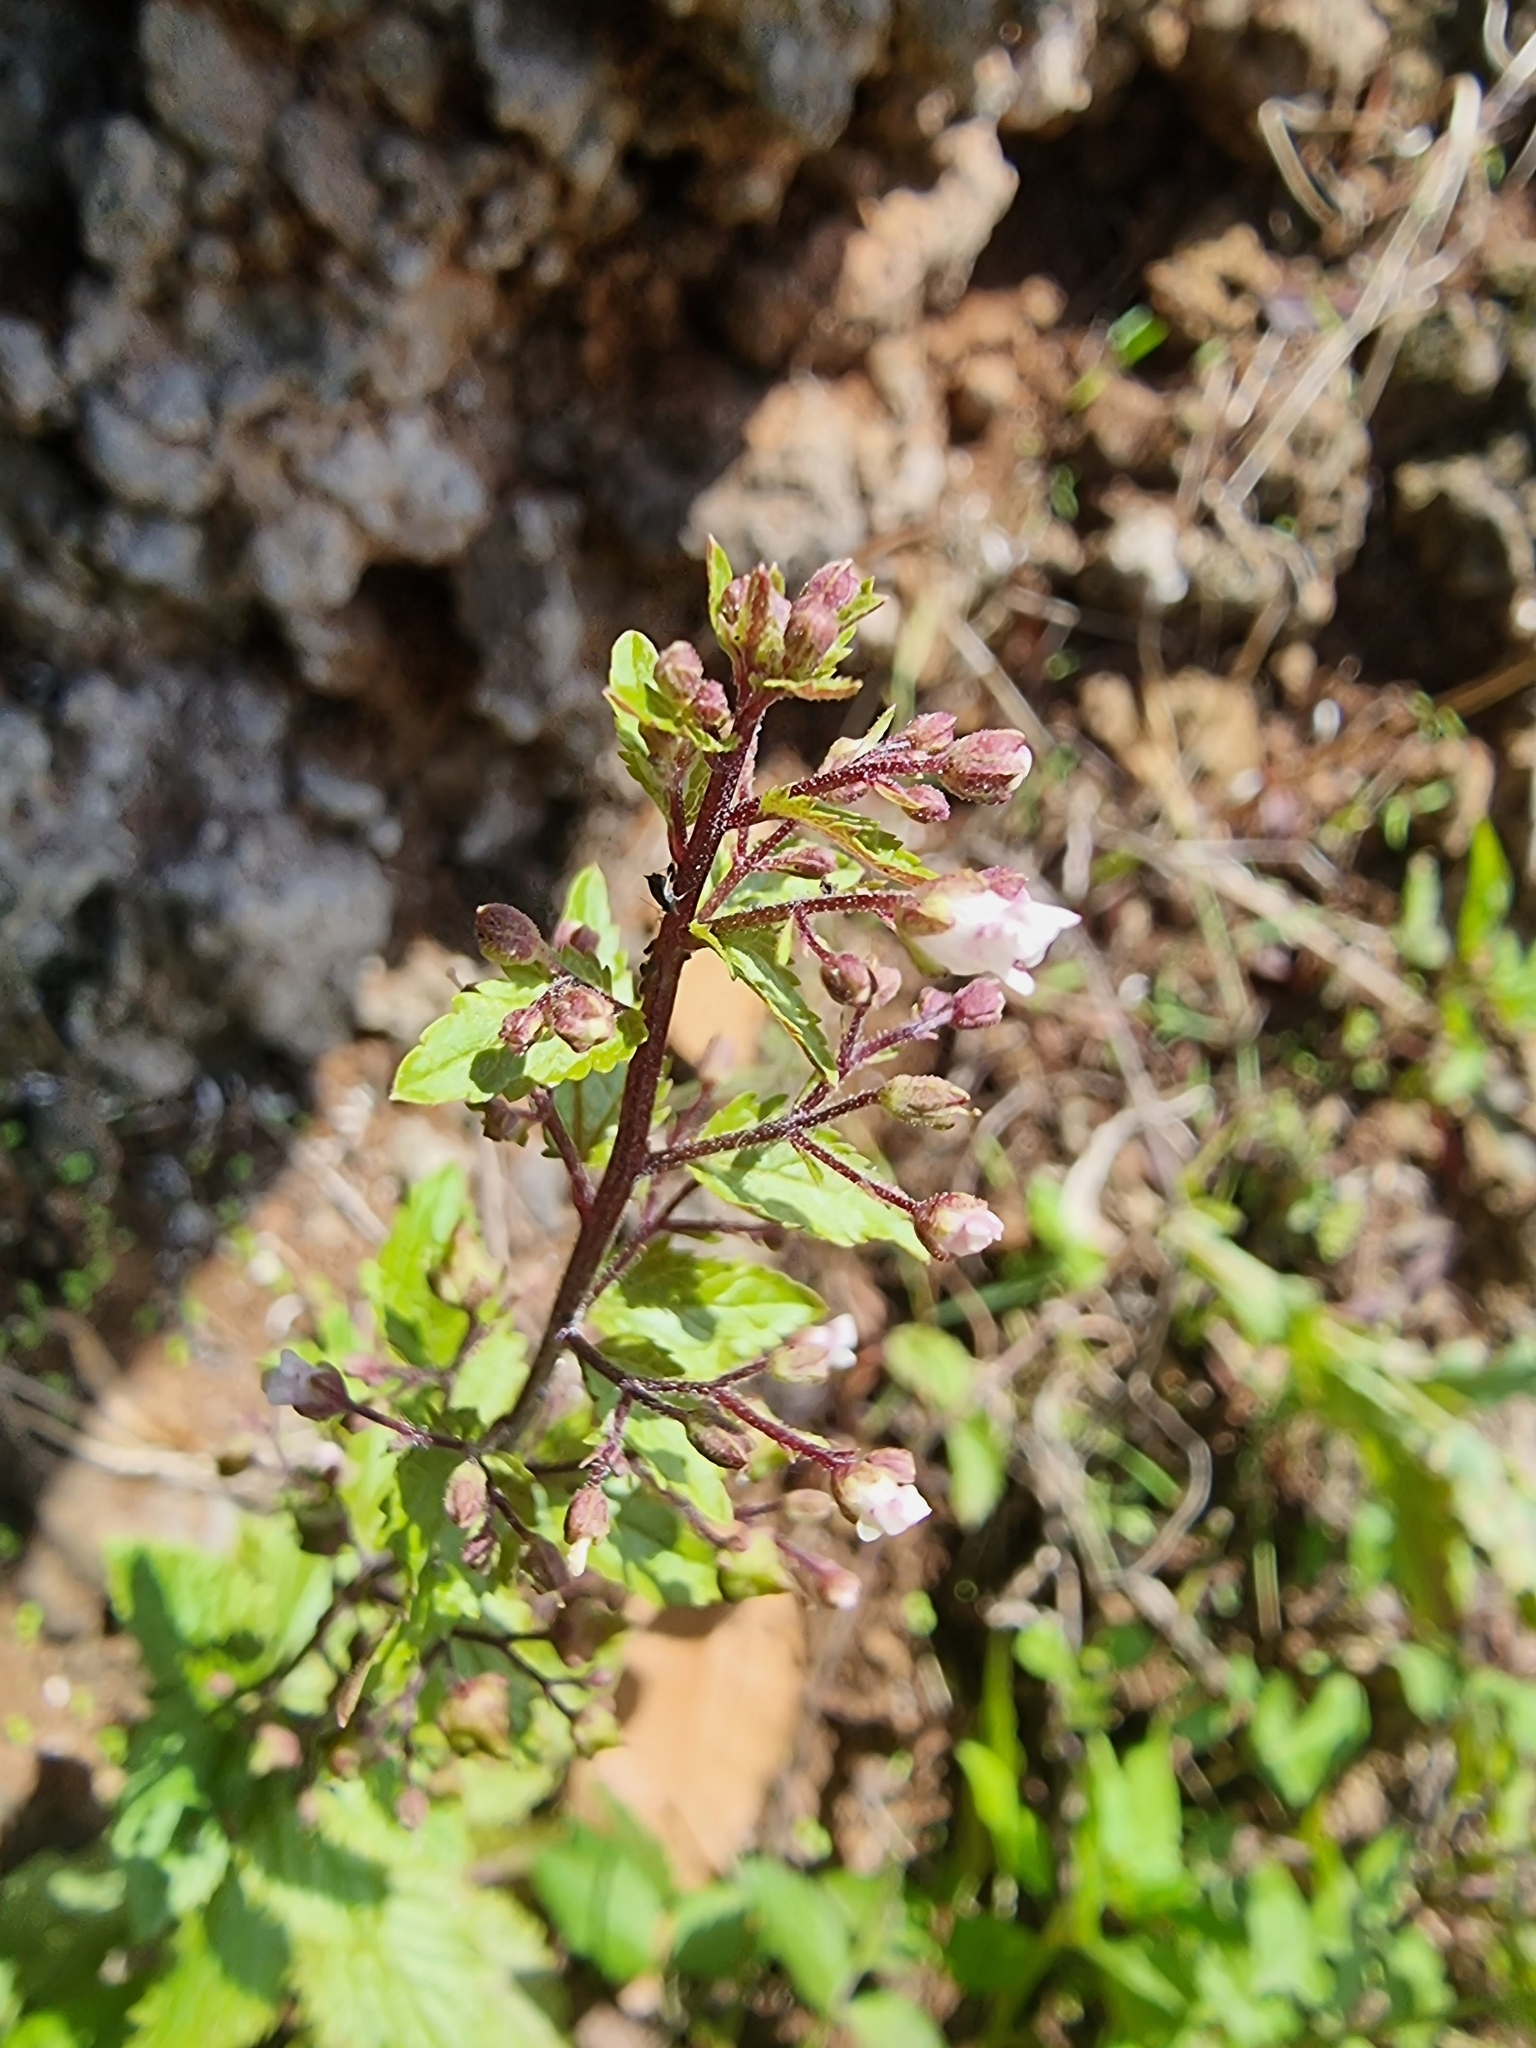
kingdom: Plantae
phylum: Tracheophyta
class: Magnoliopsida
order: Lamiales
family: Scrophulariaceae
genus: Scrophularia
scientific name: Scrophularia lowei
